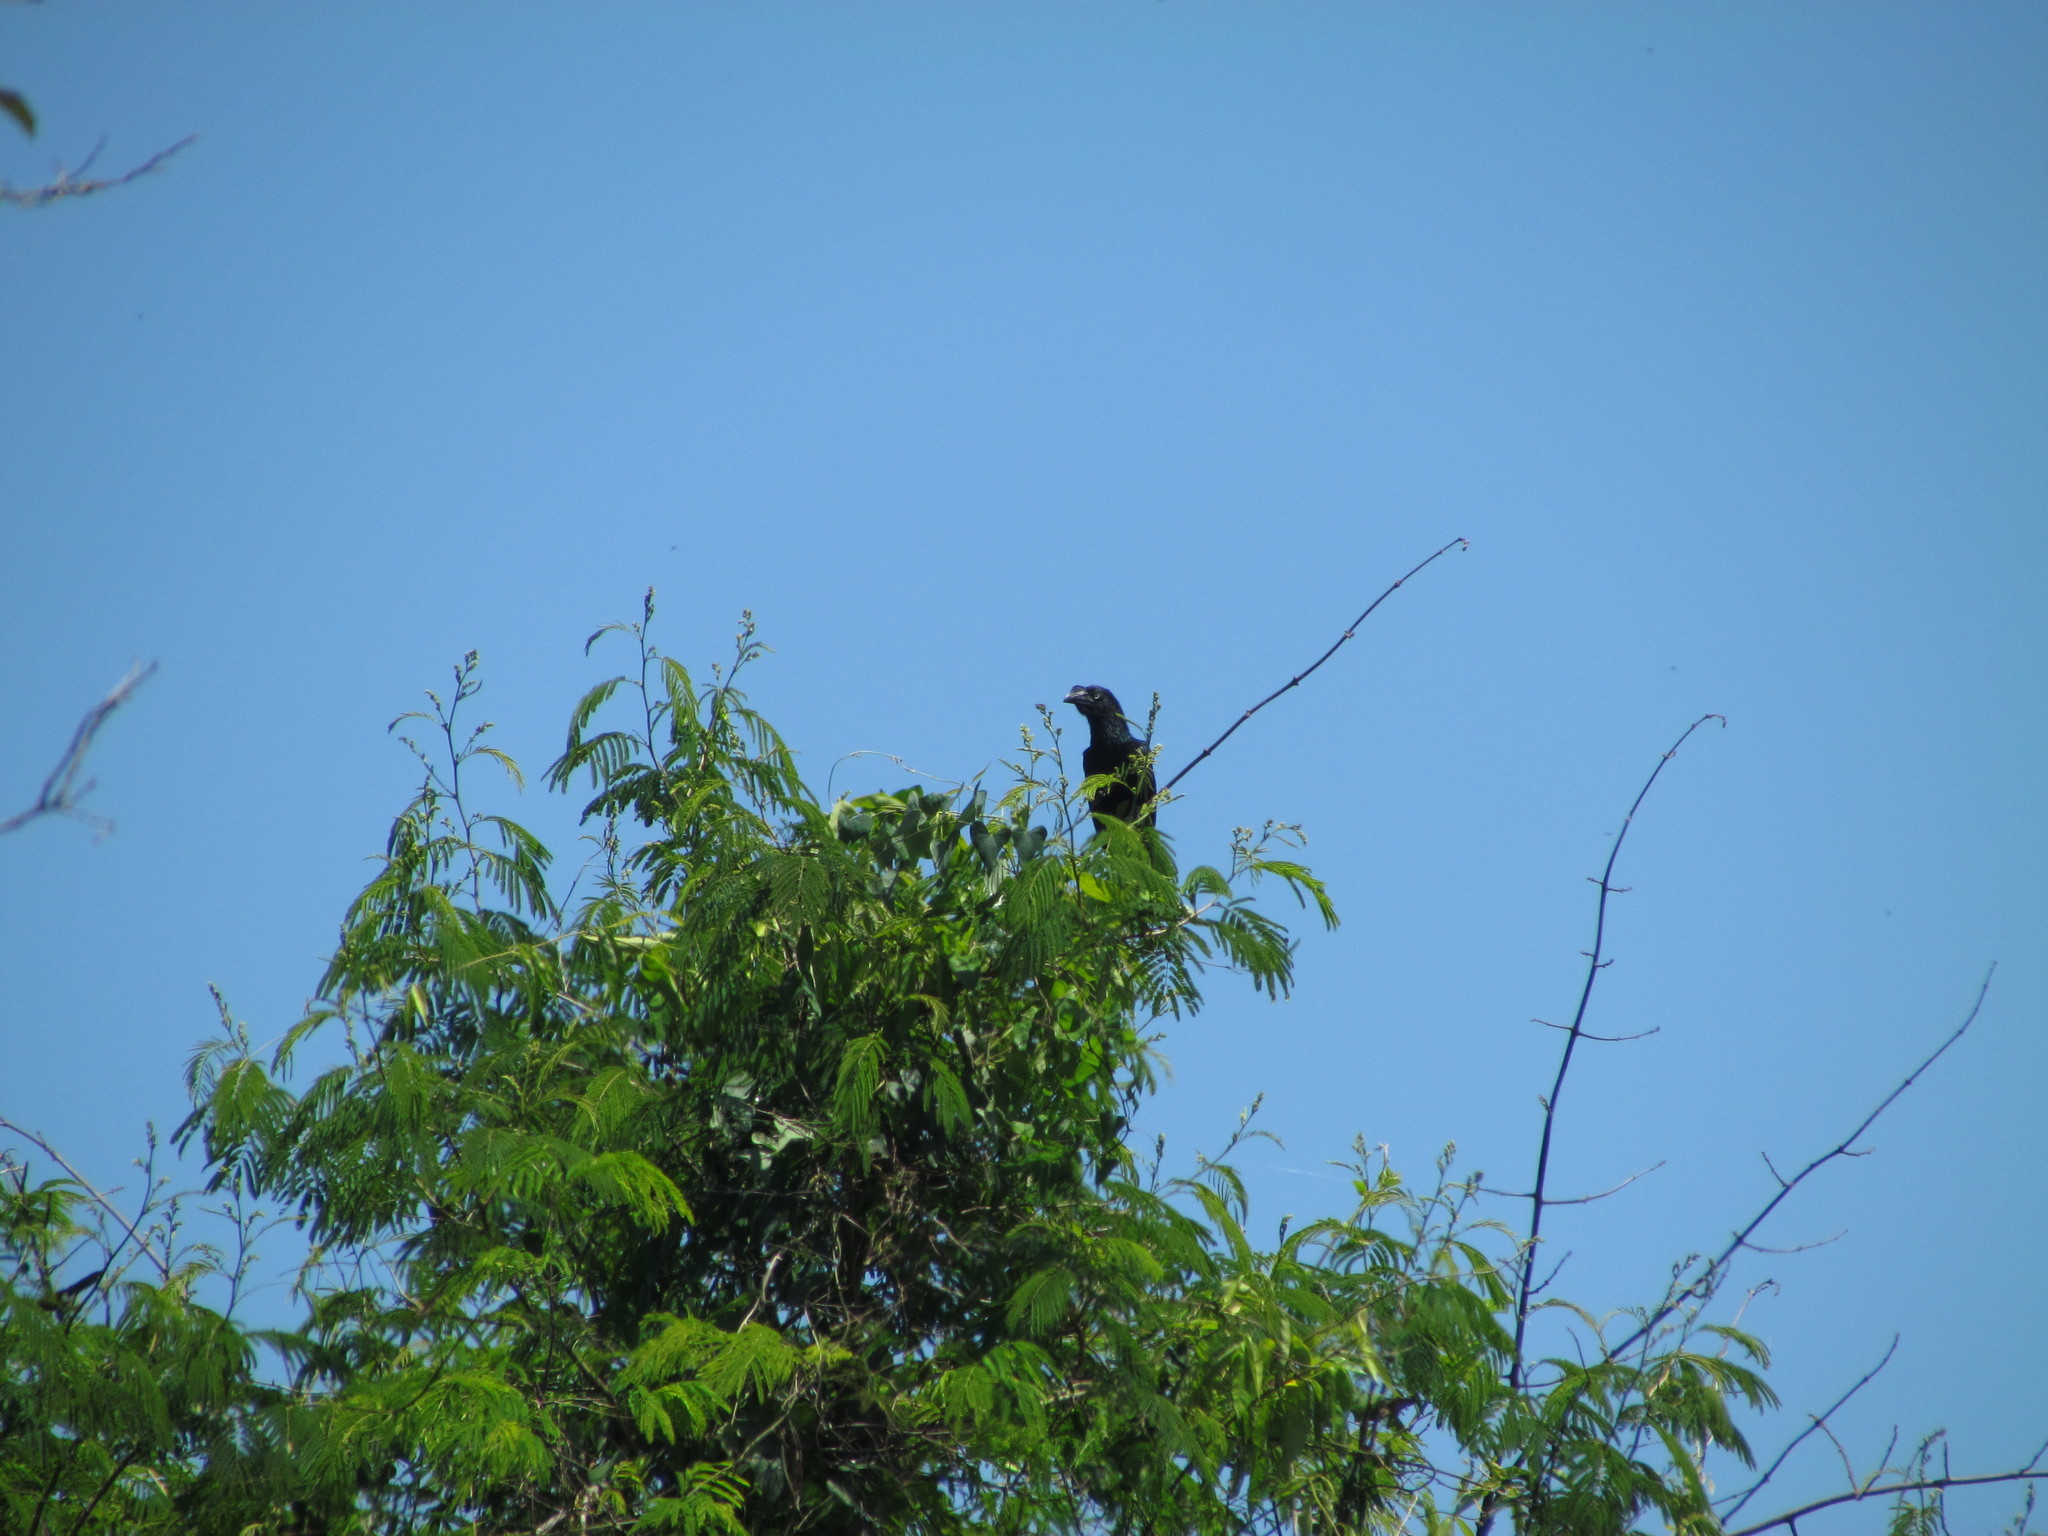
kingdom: Animalia
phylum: Chordata
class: Aves
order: Cuculiformes
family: Cuculidae
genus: Crotophaga
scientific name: Crotophaga major
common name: Greater ani
